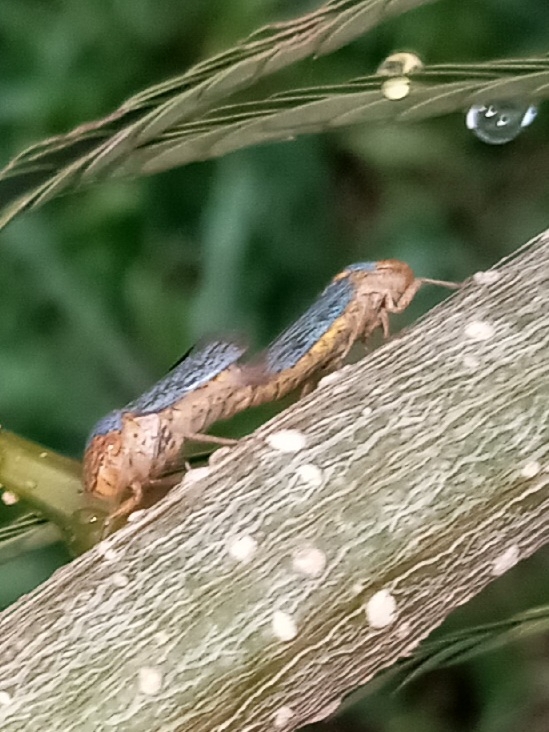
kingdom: Animalia
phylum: Arthropoda
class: Insecta
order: Hemiptera
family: Cicadellidae
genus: Oncometopia
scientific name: Oncometopia orbona
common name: Broad-headed sharpshooter
